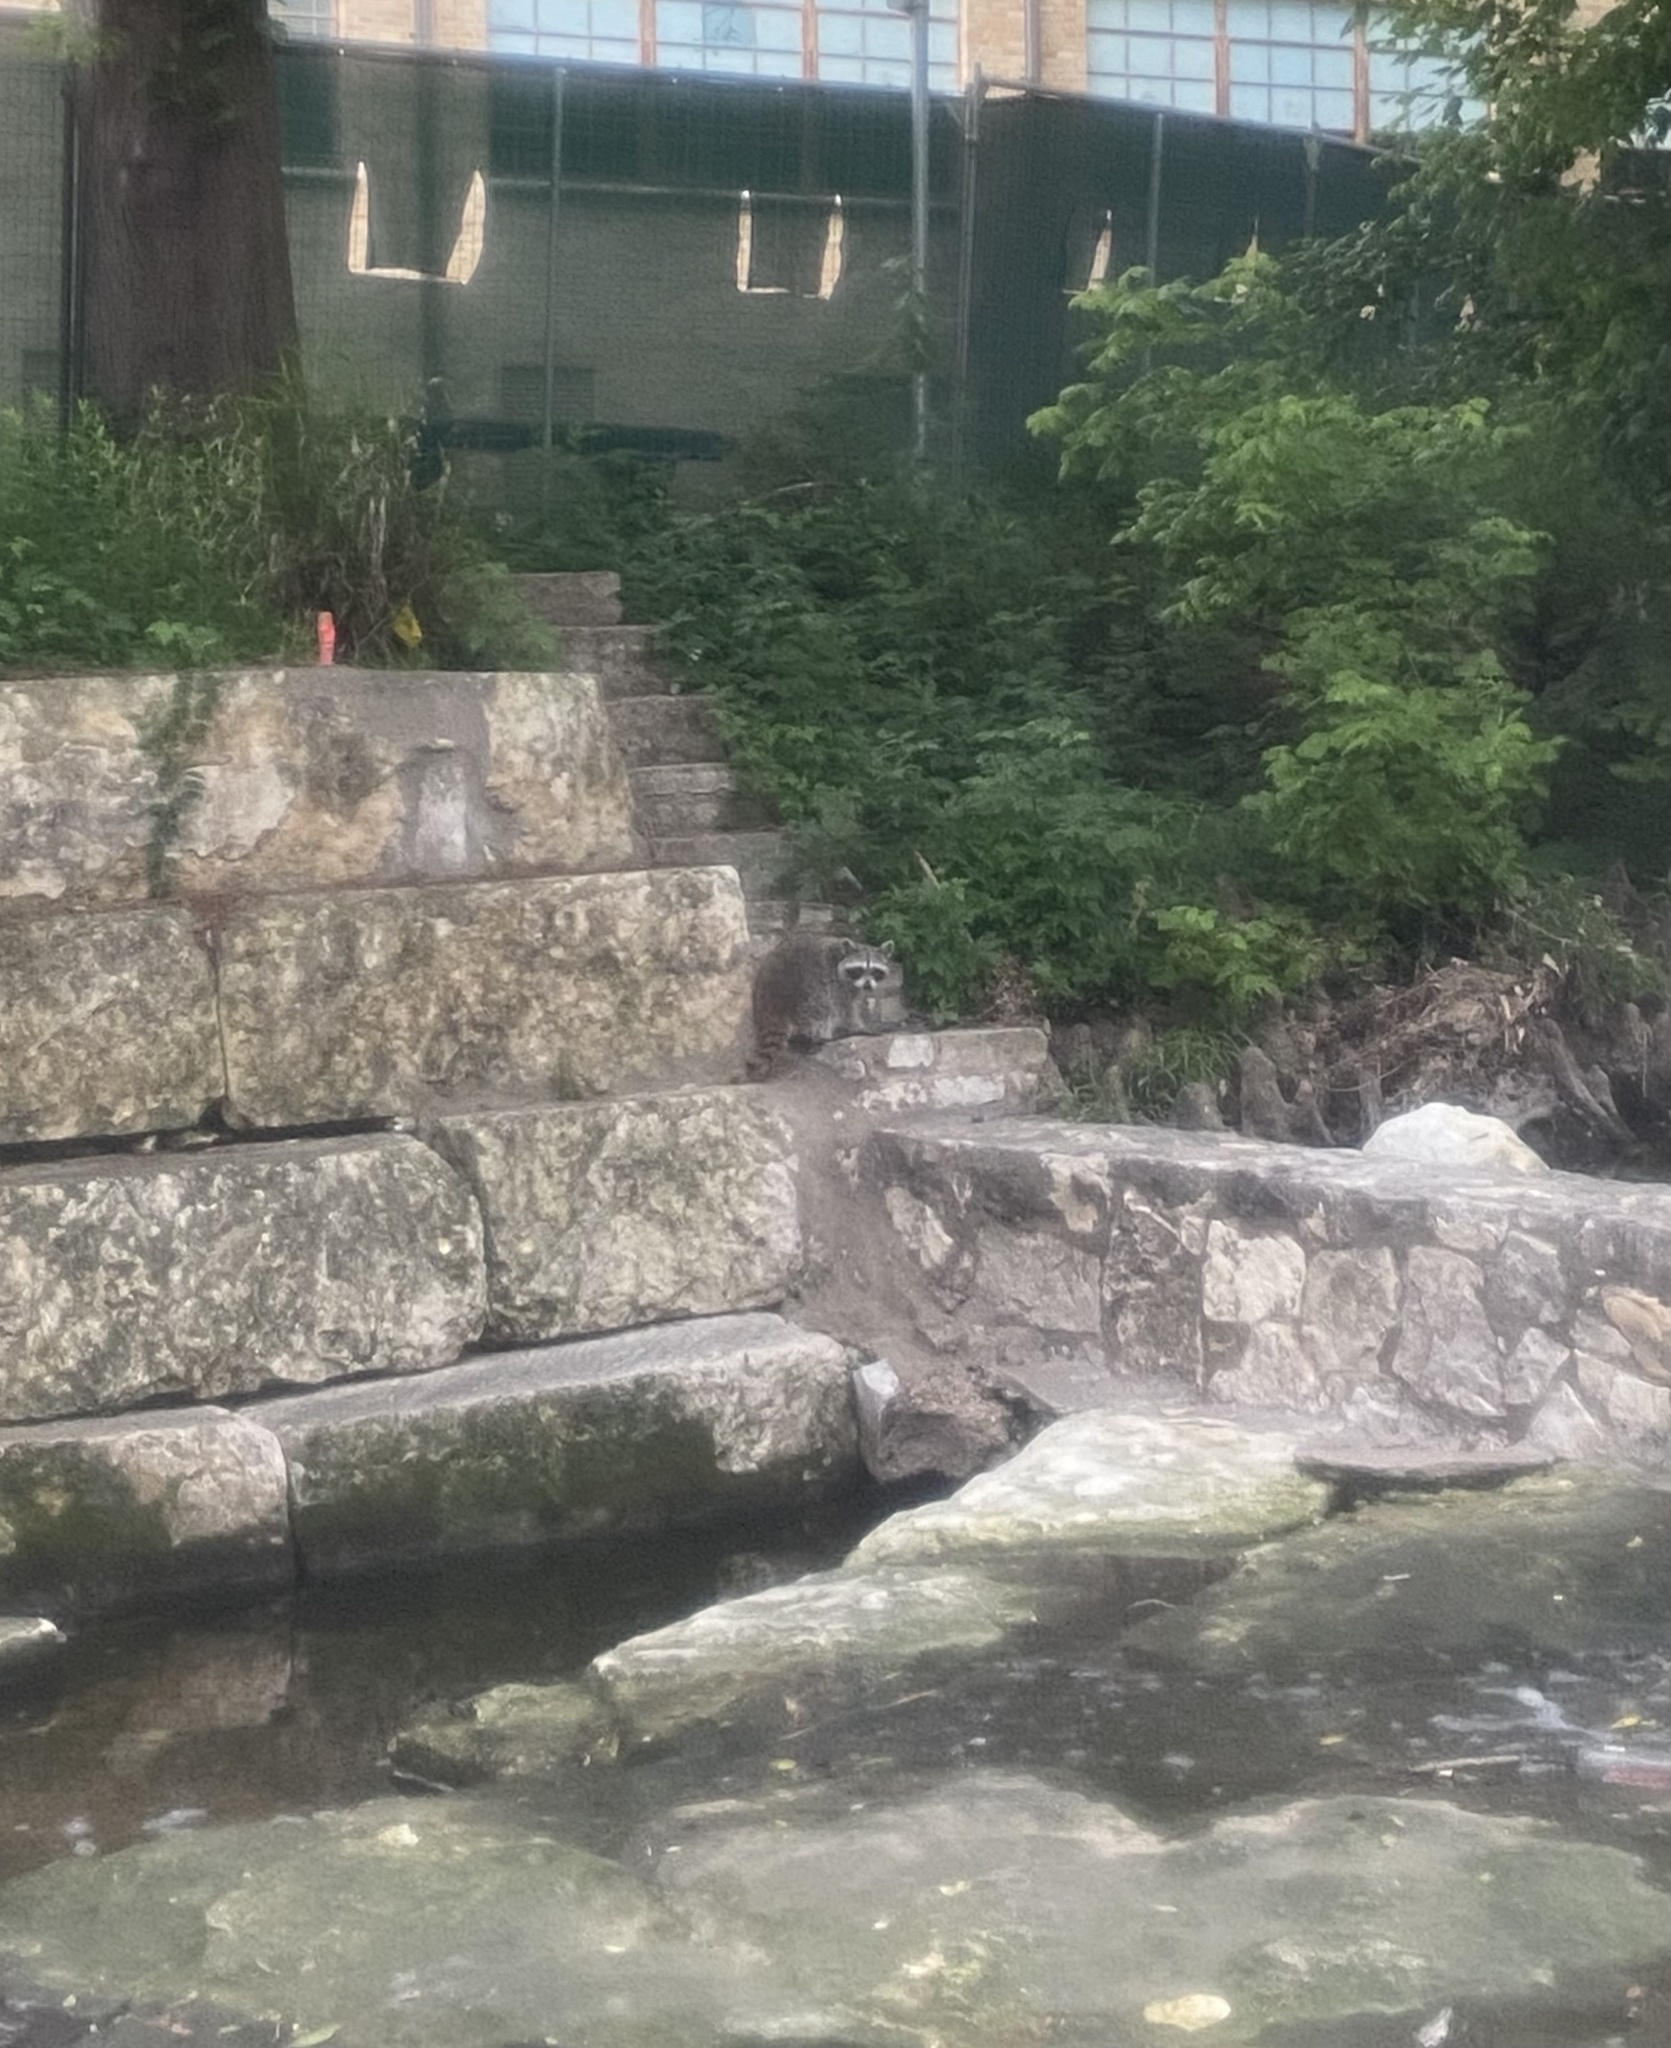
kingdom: Animalia
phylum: Chordata
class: Mammalia
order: Carnivora
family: Procyonidae
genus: Procyon
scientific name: Procyon lotor
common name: Raccoon
